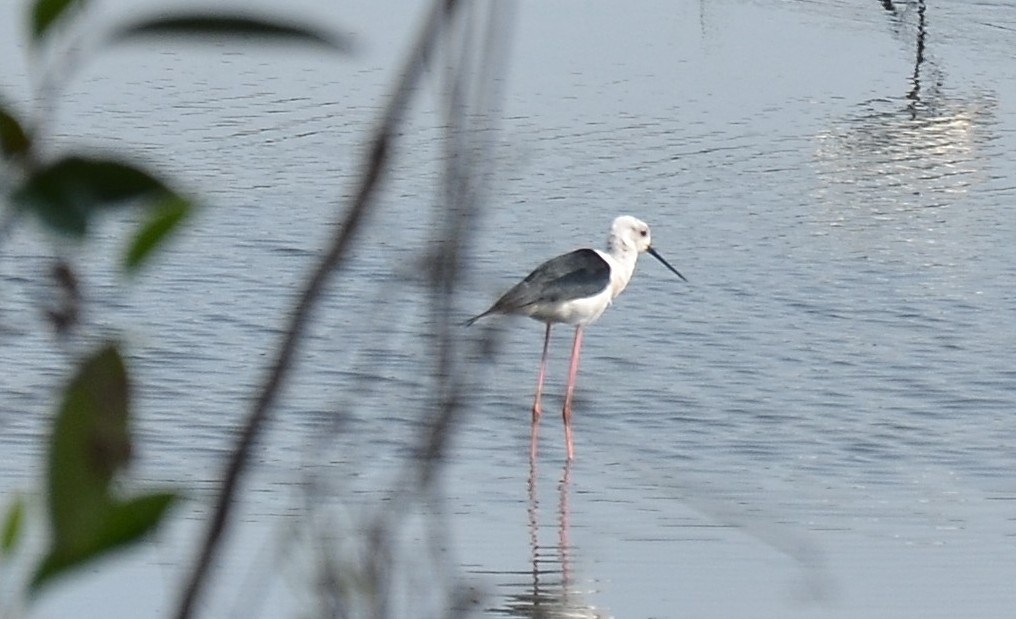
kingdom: Animalia
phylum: Chordata
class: Aves
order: Charadriiformes
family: Recurvirostridae
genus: Himantopus
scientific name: Himantopus himantopus
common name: Black-winged stilt
